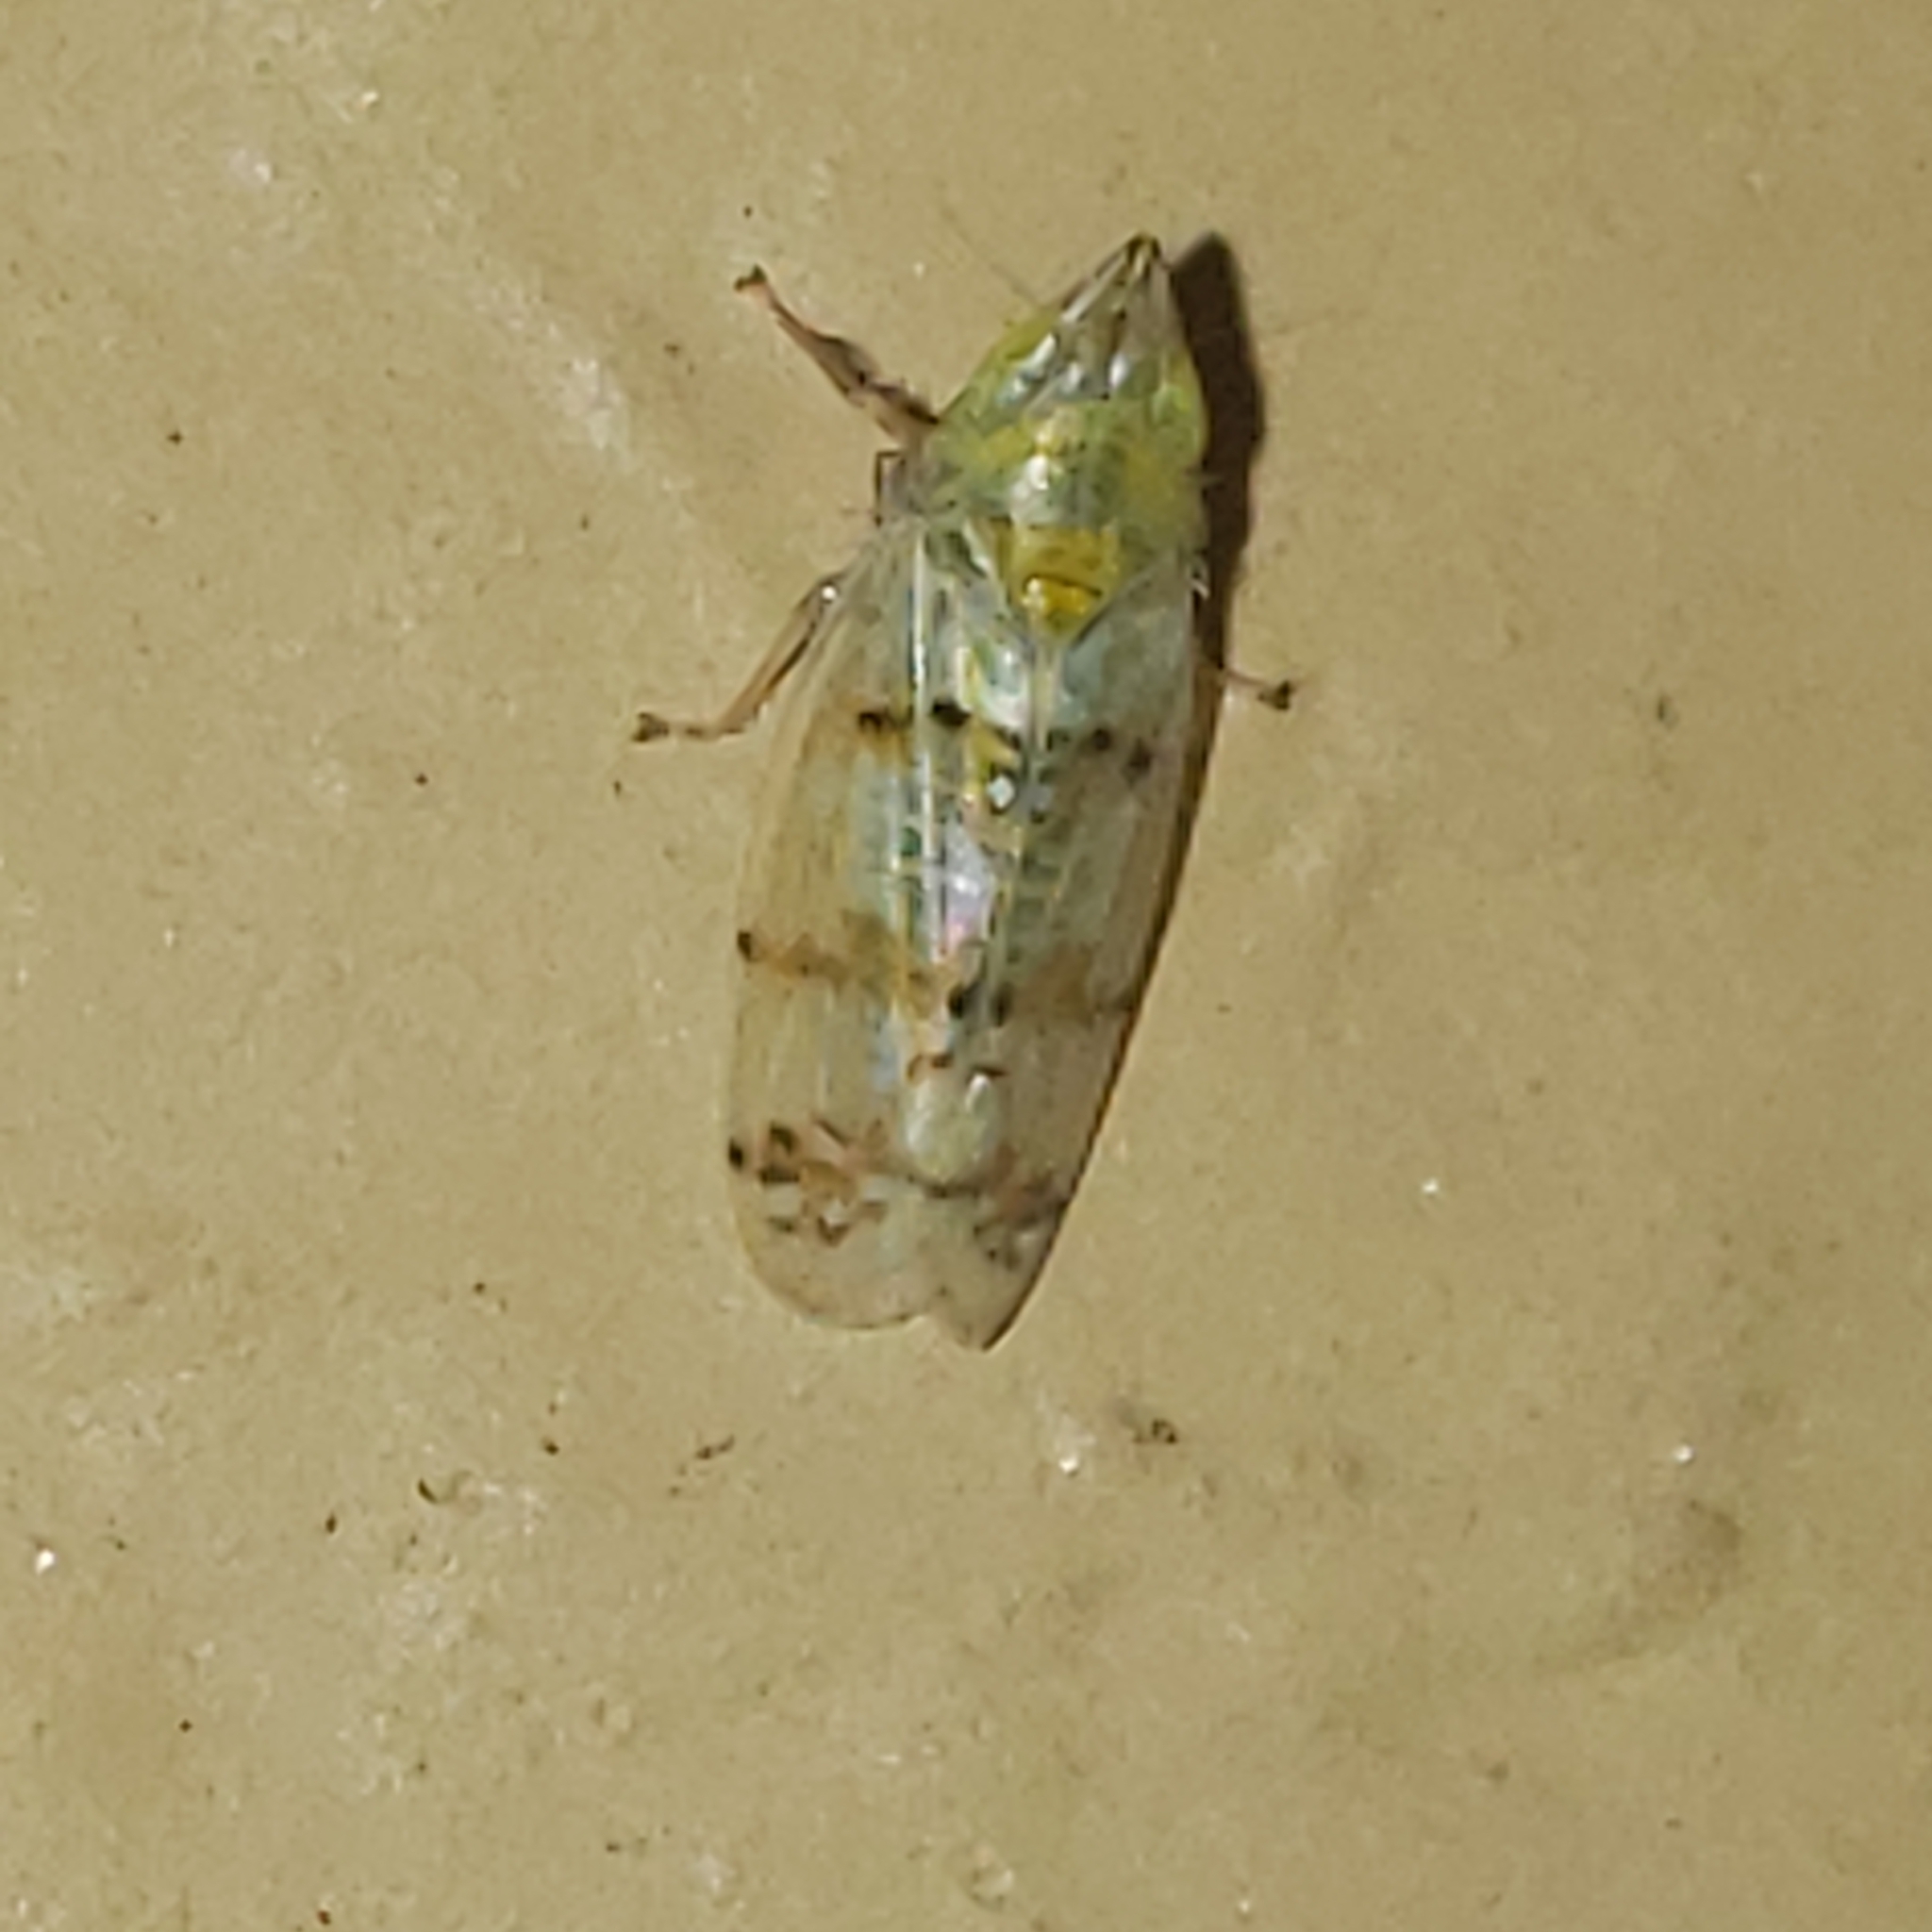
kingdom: Animalia
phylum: Arthropoda
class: Insecta
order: Hemiptera
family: Cicadellidae
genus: Japananus
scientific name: Japananus hyalinus
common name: The japanese maple leafhopper
